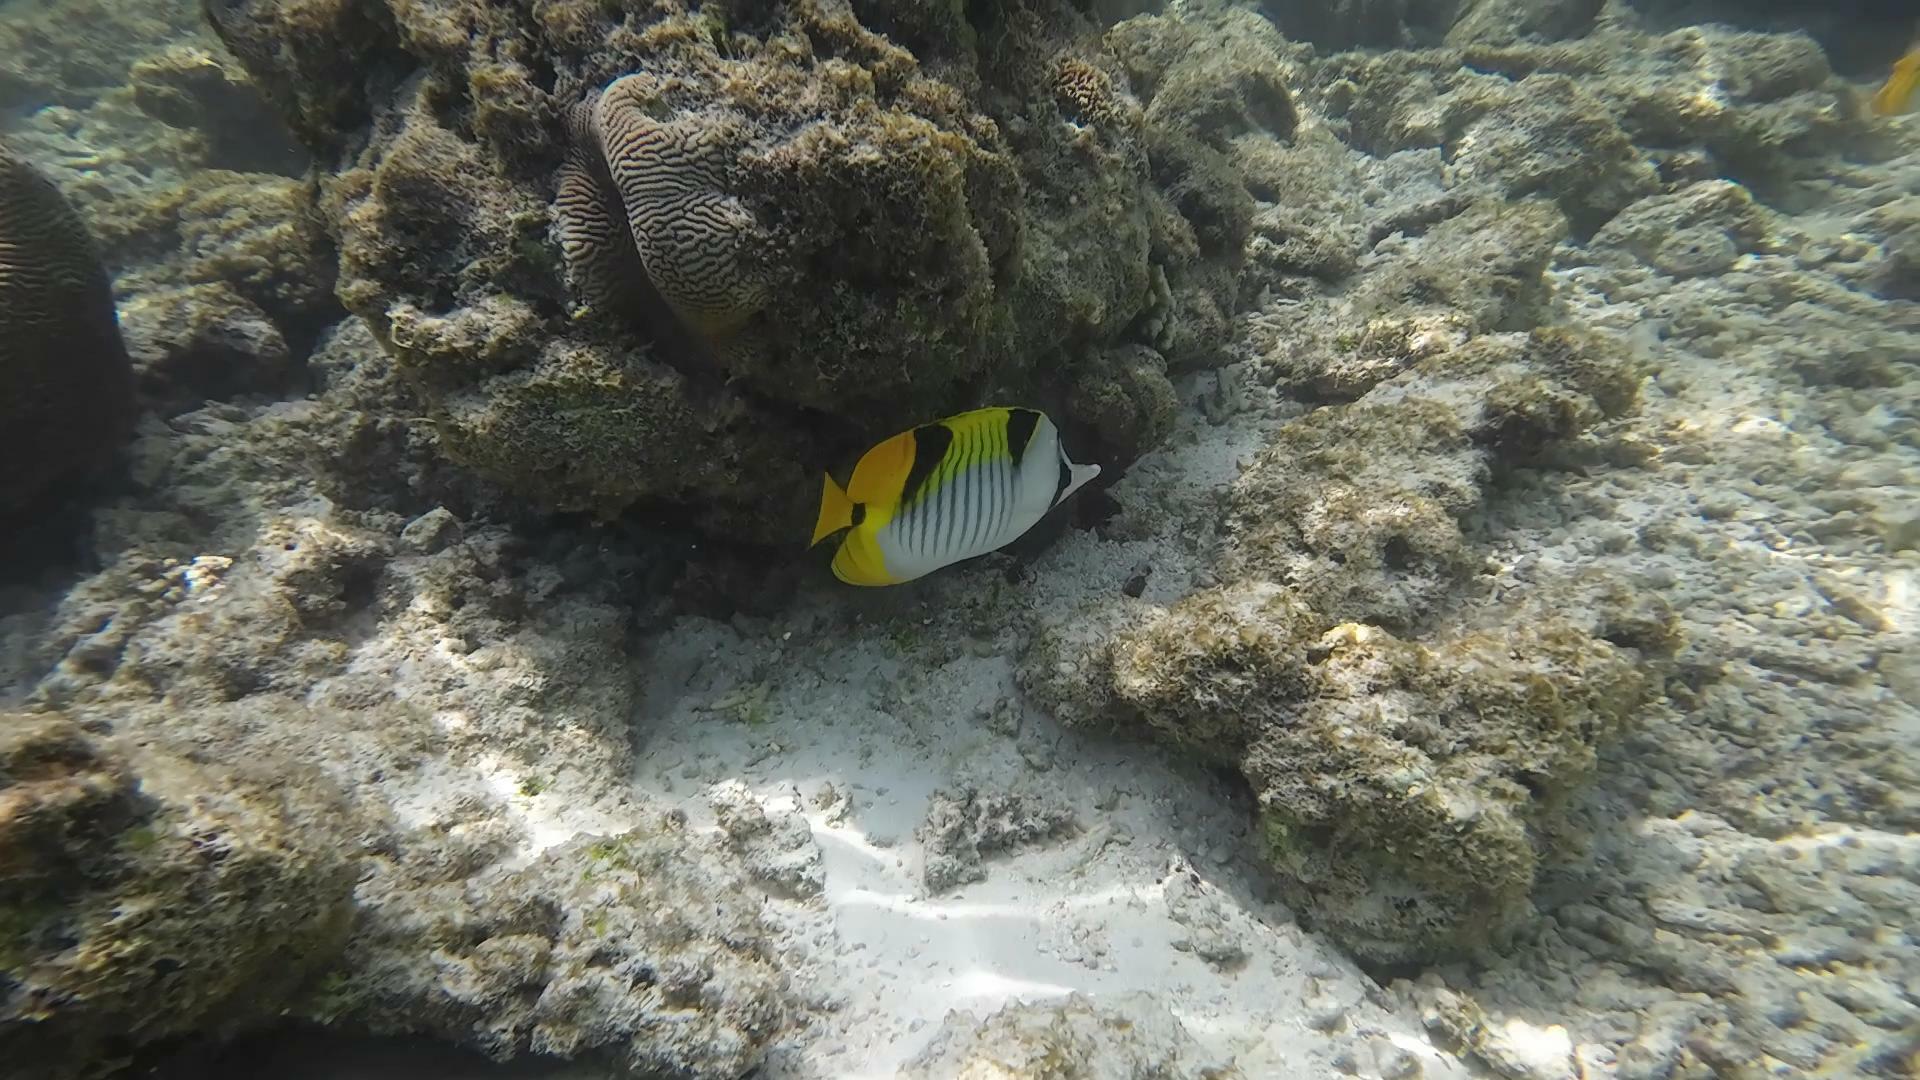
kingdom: Animalia
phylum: Chordata
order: Perciformes
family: Chaetodontidae
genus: Chaetodon
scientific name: Chaetodon falcula
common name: Blackwedged butterflyfish
